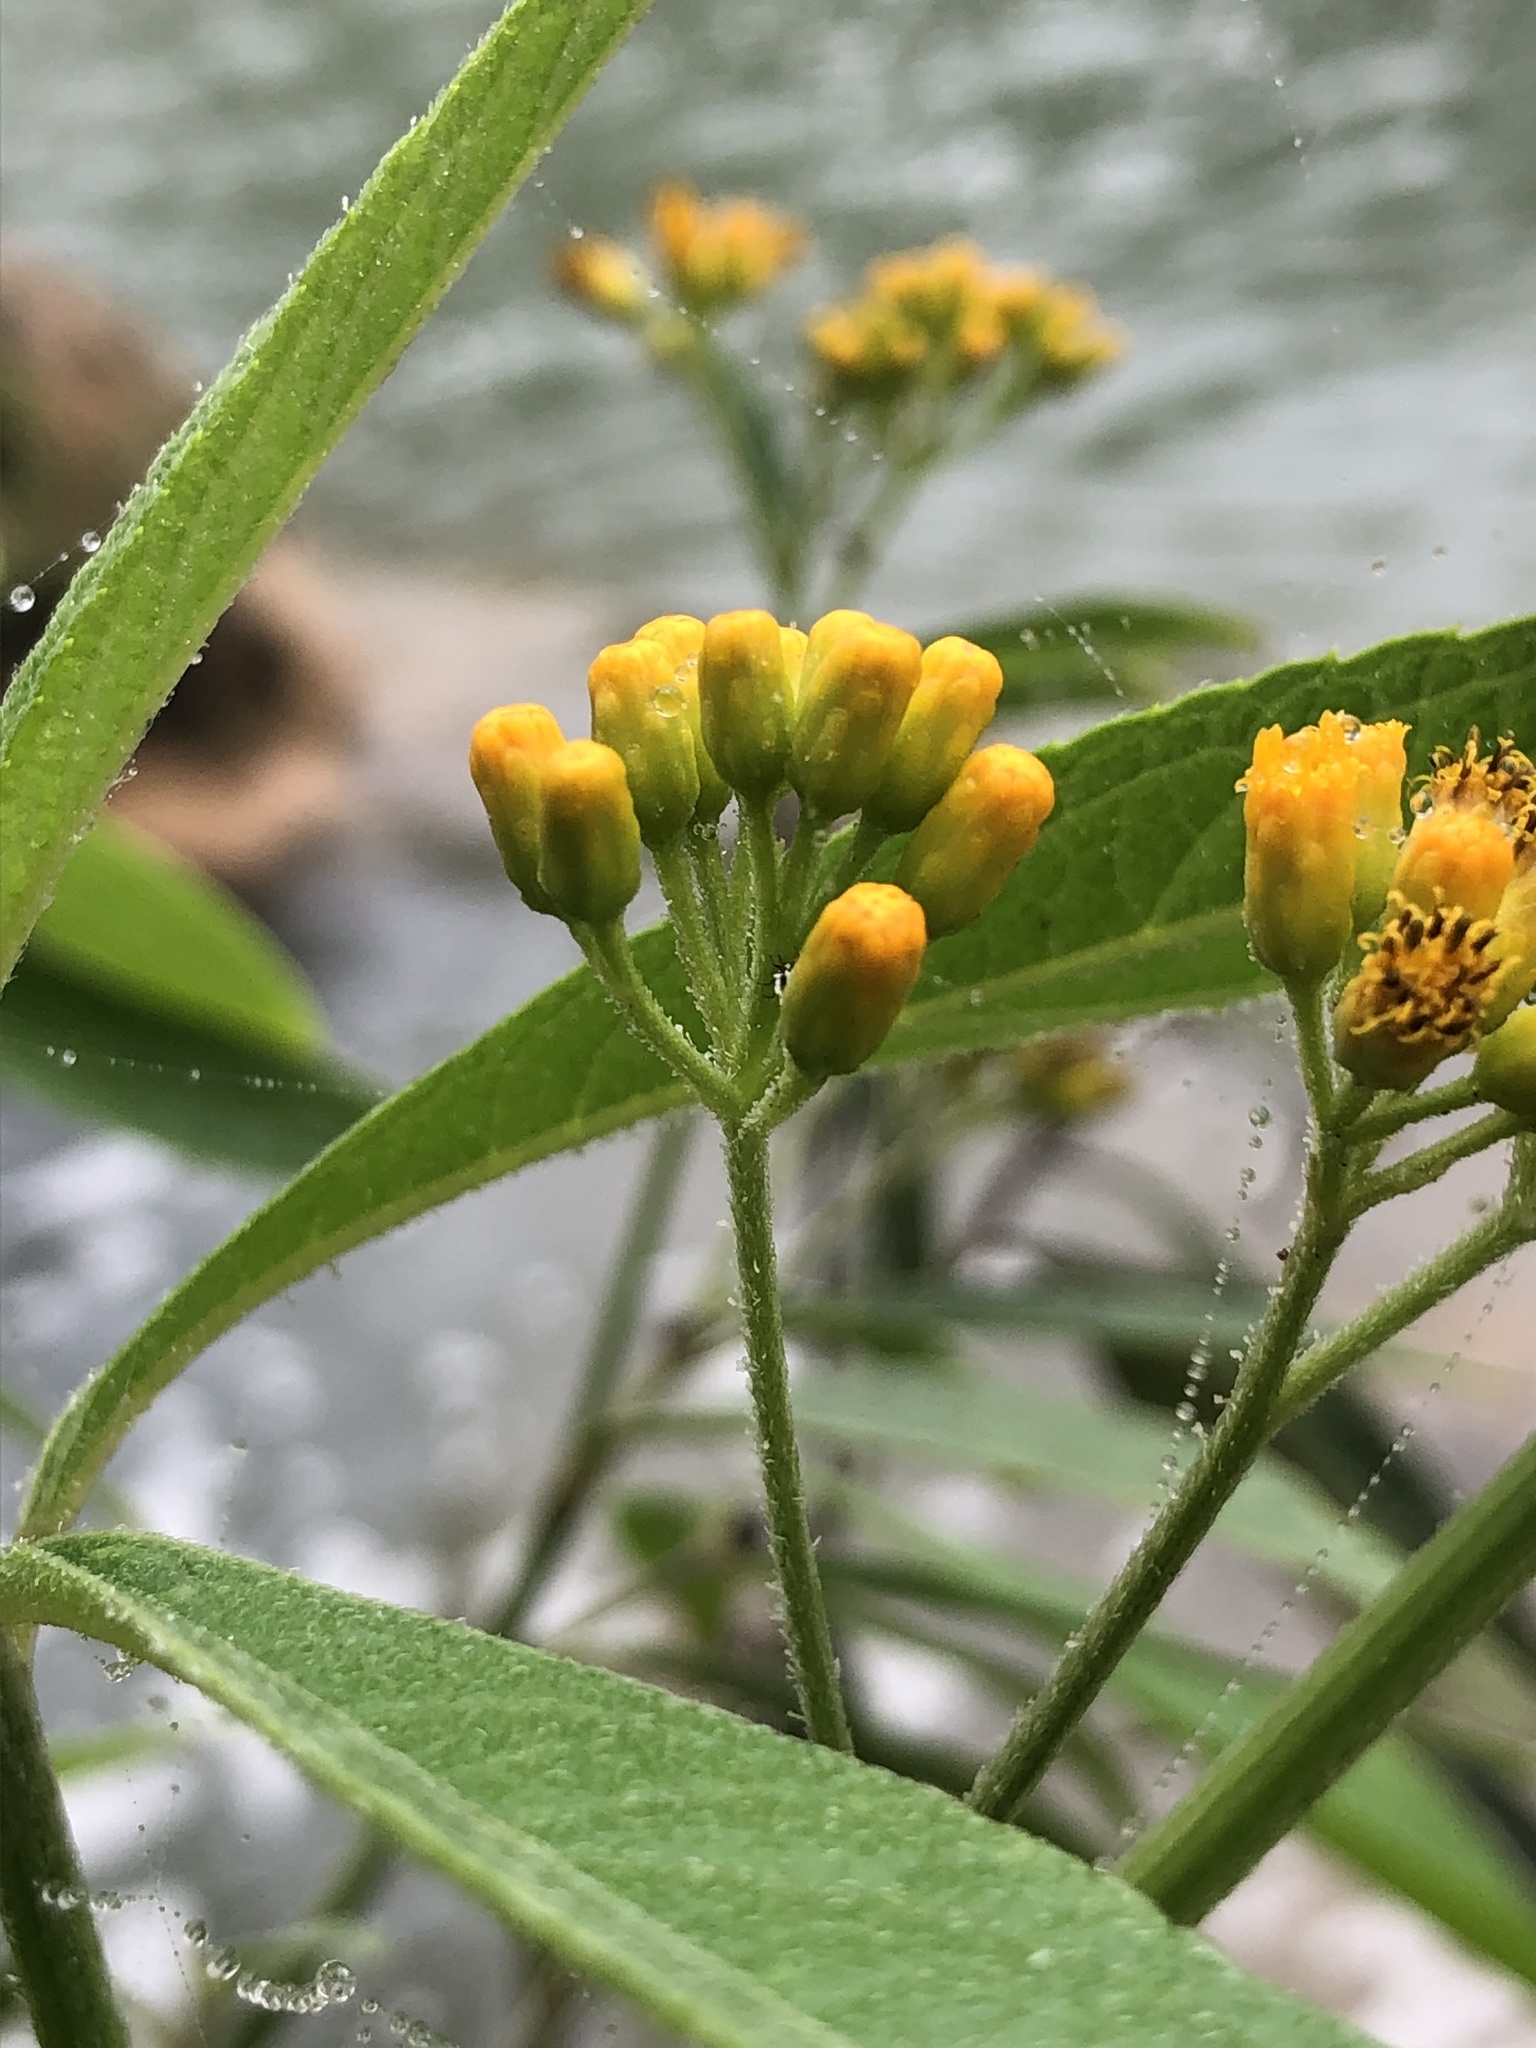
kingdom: Plantae
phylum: Tracheophyta
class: Magnoliopsida
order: Asterales
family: Asteraceae
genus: Neurolaena
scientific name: Neurolaena lobata
